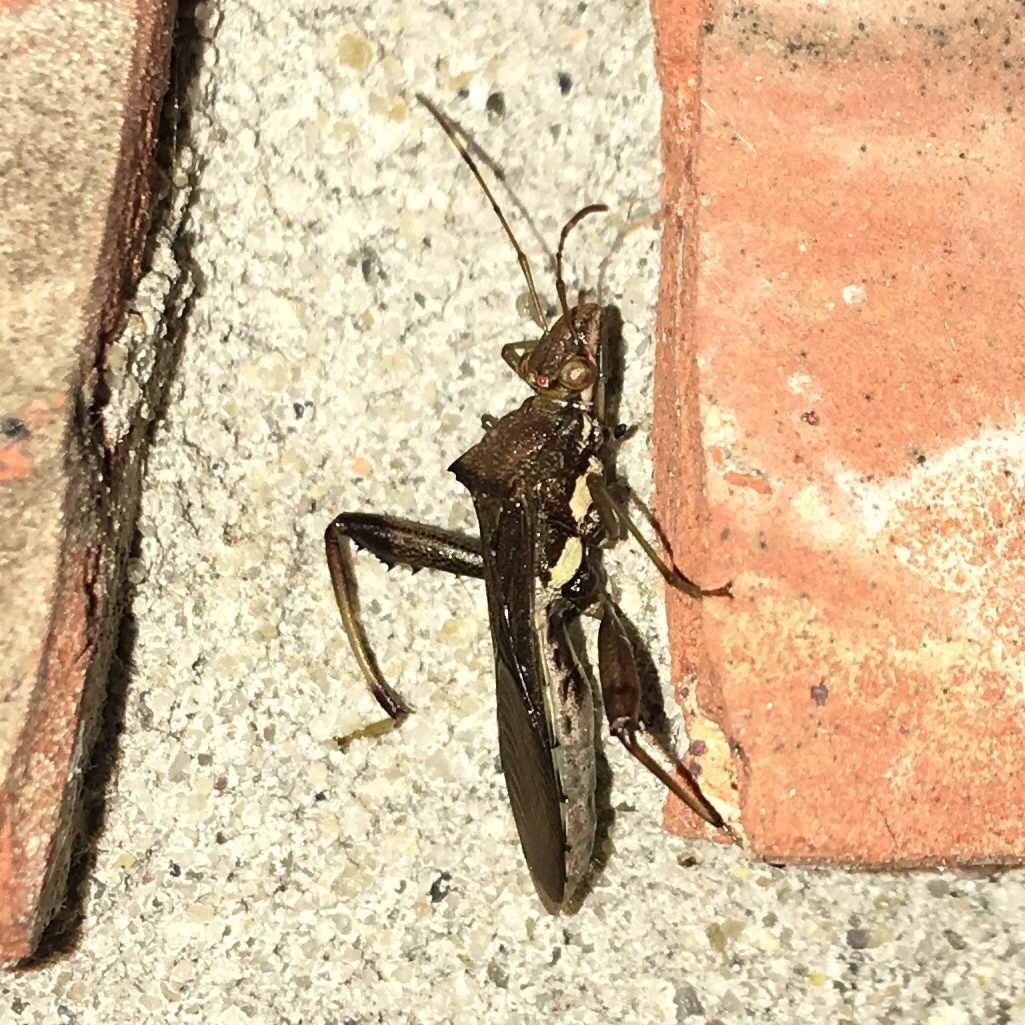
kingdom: Animalia
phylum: Arthropoda
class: Insecta
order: Hemiptera
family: Alydidae
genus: Hyalymenus
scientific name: Hyalymenus tarsatus
